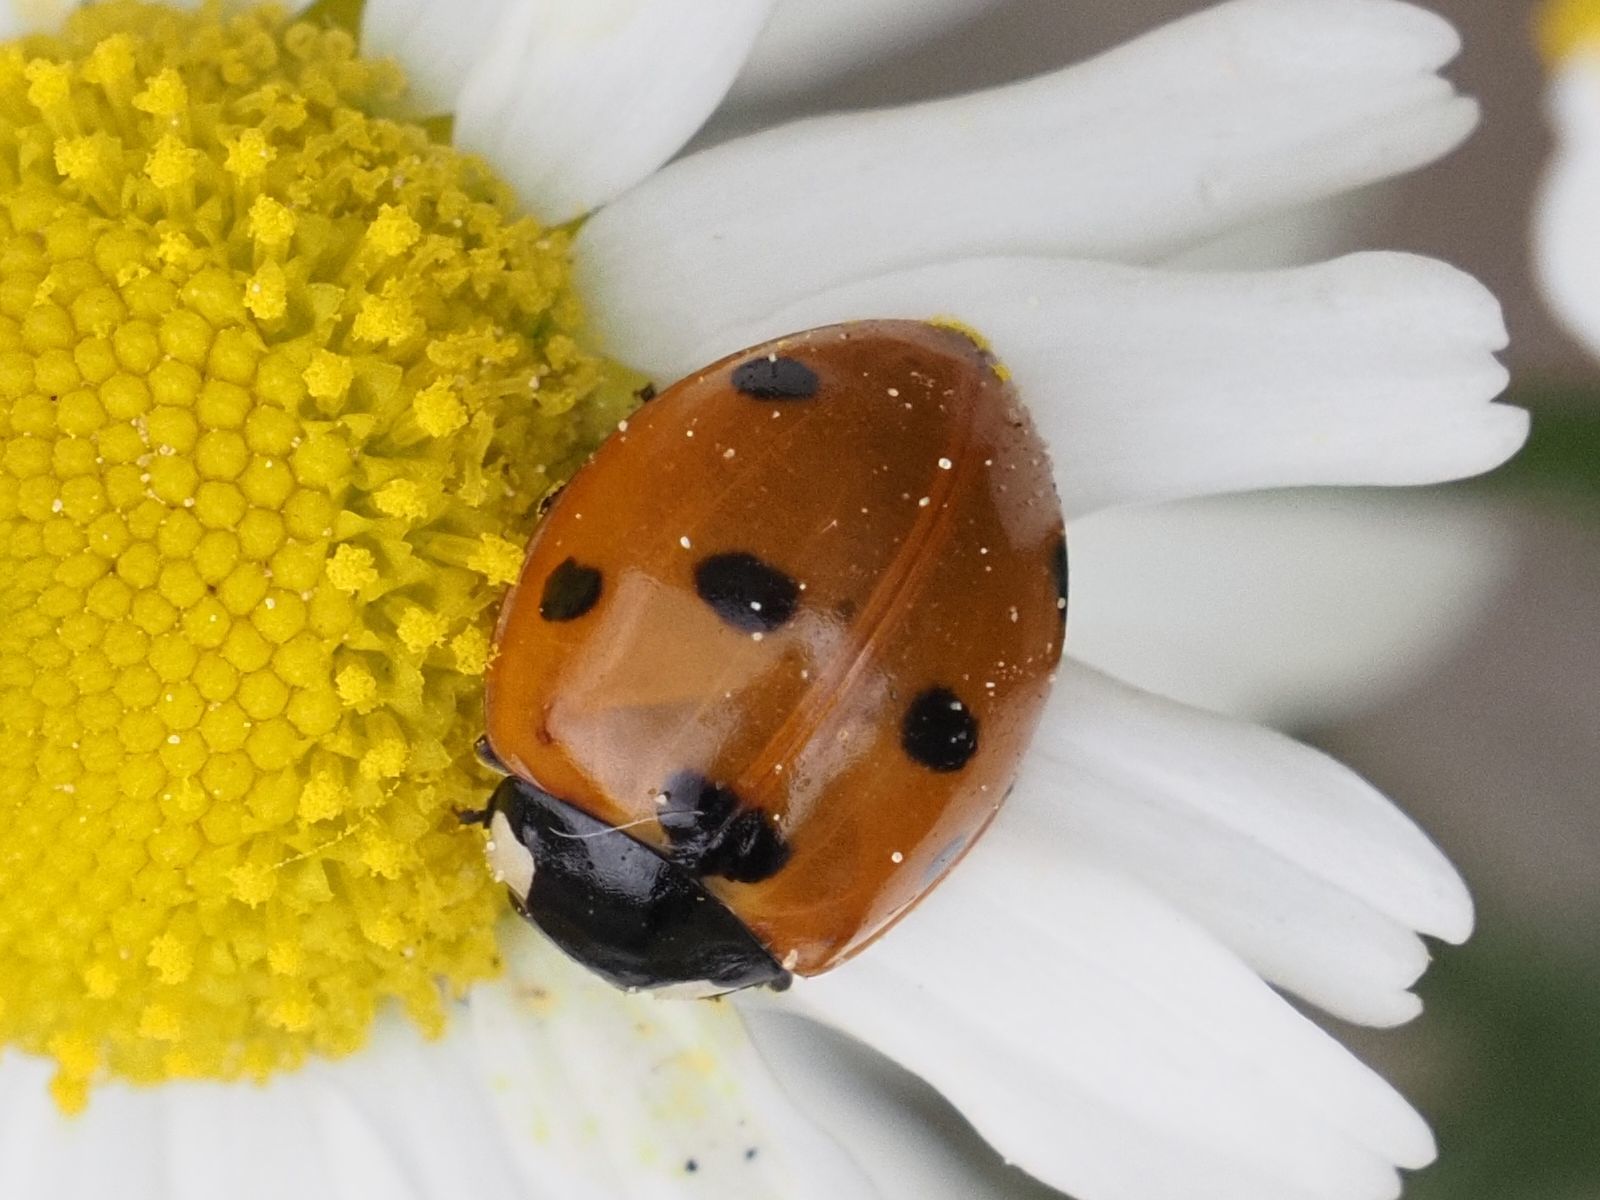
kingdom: Animalia
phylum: Arthropoda
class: Insecta
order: Coleoptera
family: Coccinellidae
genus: Coccinella
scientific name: Coccinella septempunctata
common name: Sevenspotted lady beetle
